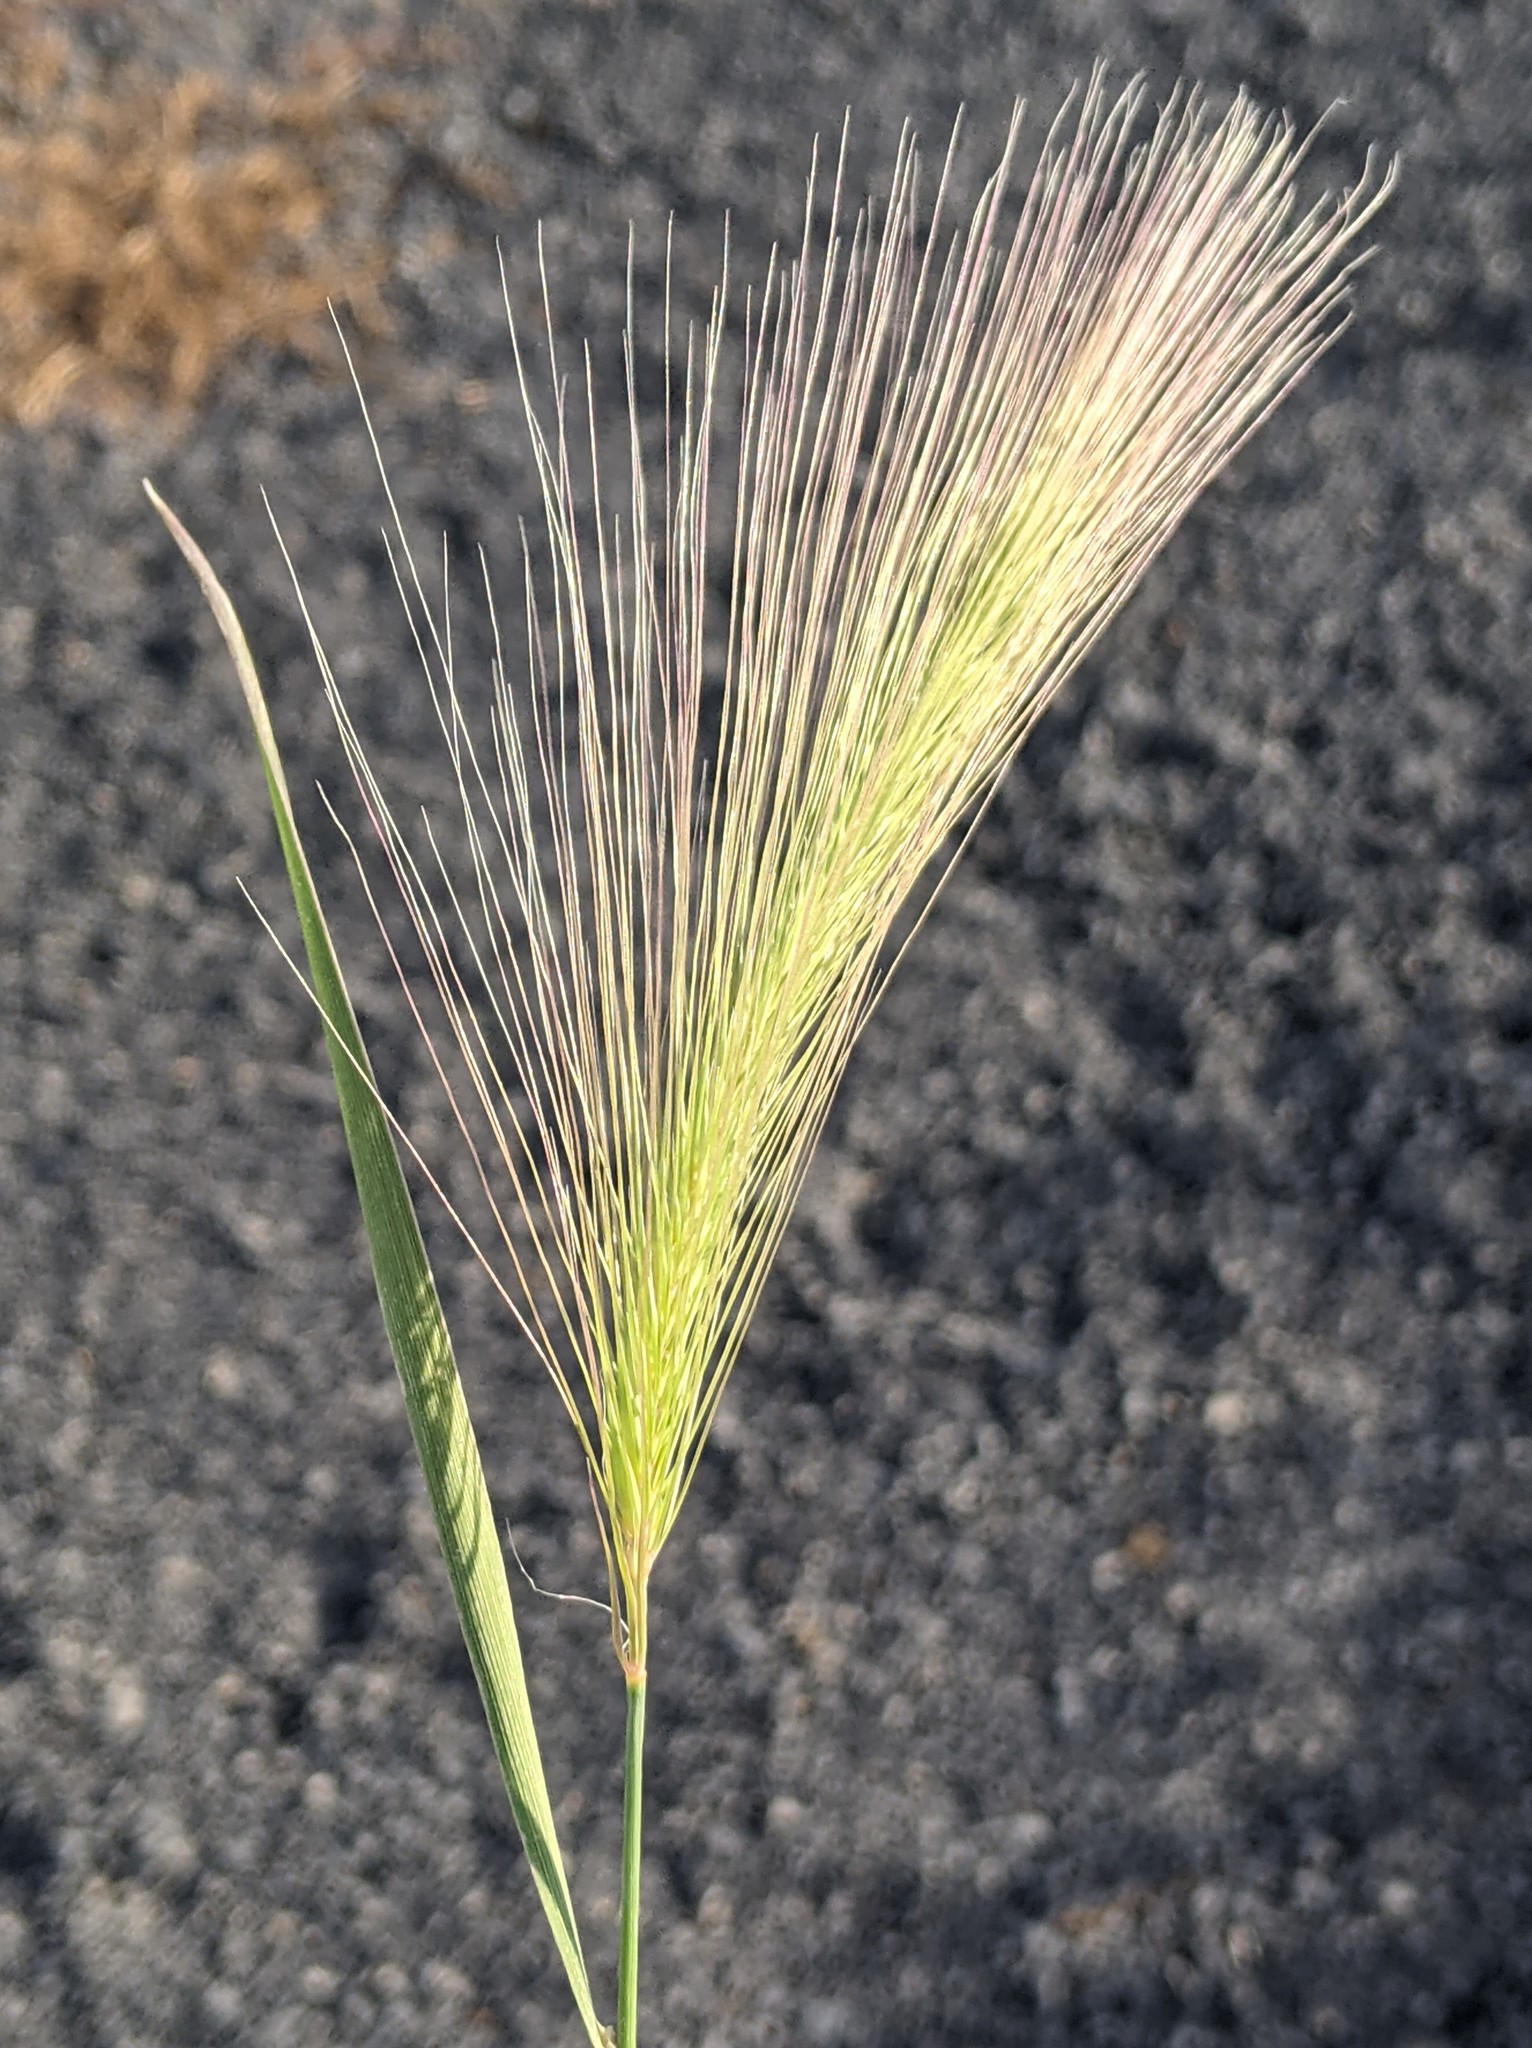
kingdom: Plantae
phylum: Tracheophyta
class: Liliopsida
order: Poales
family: Poaceae
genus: Hordeum
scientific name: Hordeum jubatum
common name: Foxtail barley
